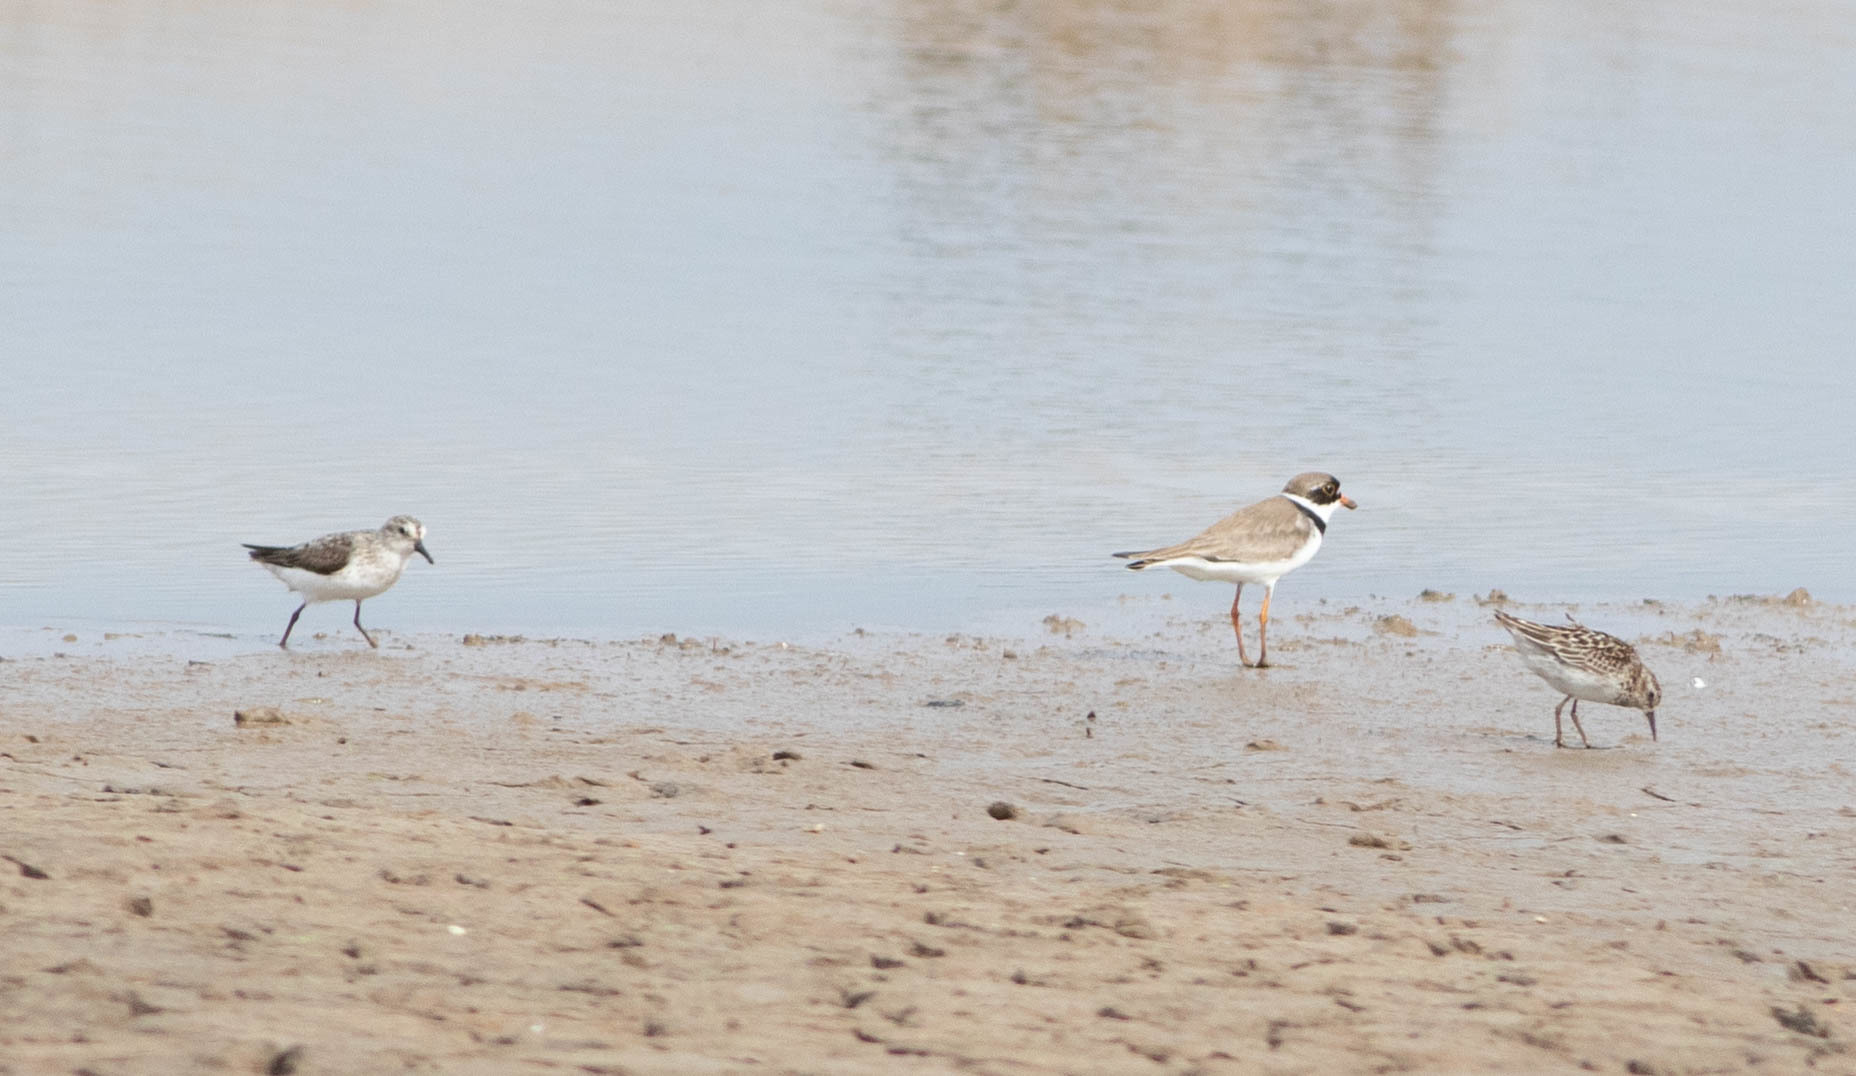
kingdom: Animalia
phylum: Chordata
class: Aves
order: Charadriiformes
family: Charadriidae
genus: Charadrius
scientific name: Charadrius semipalmatus
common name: Semipalmated plover
